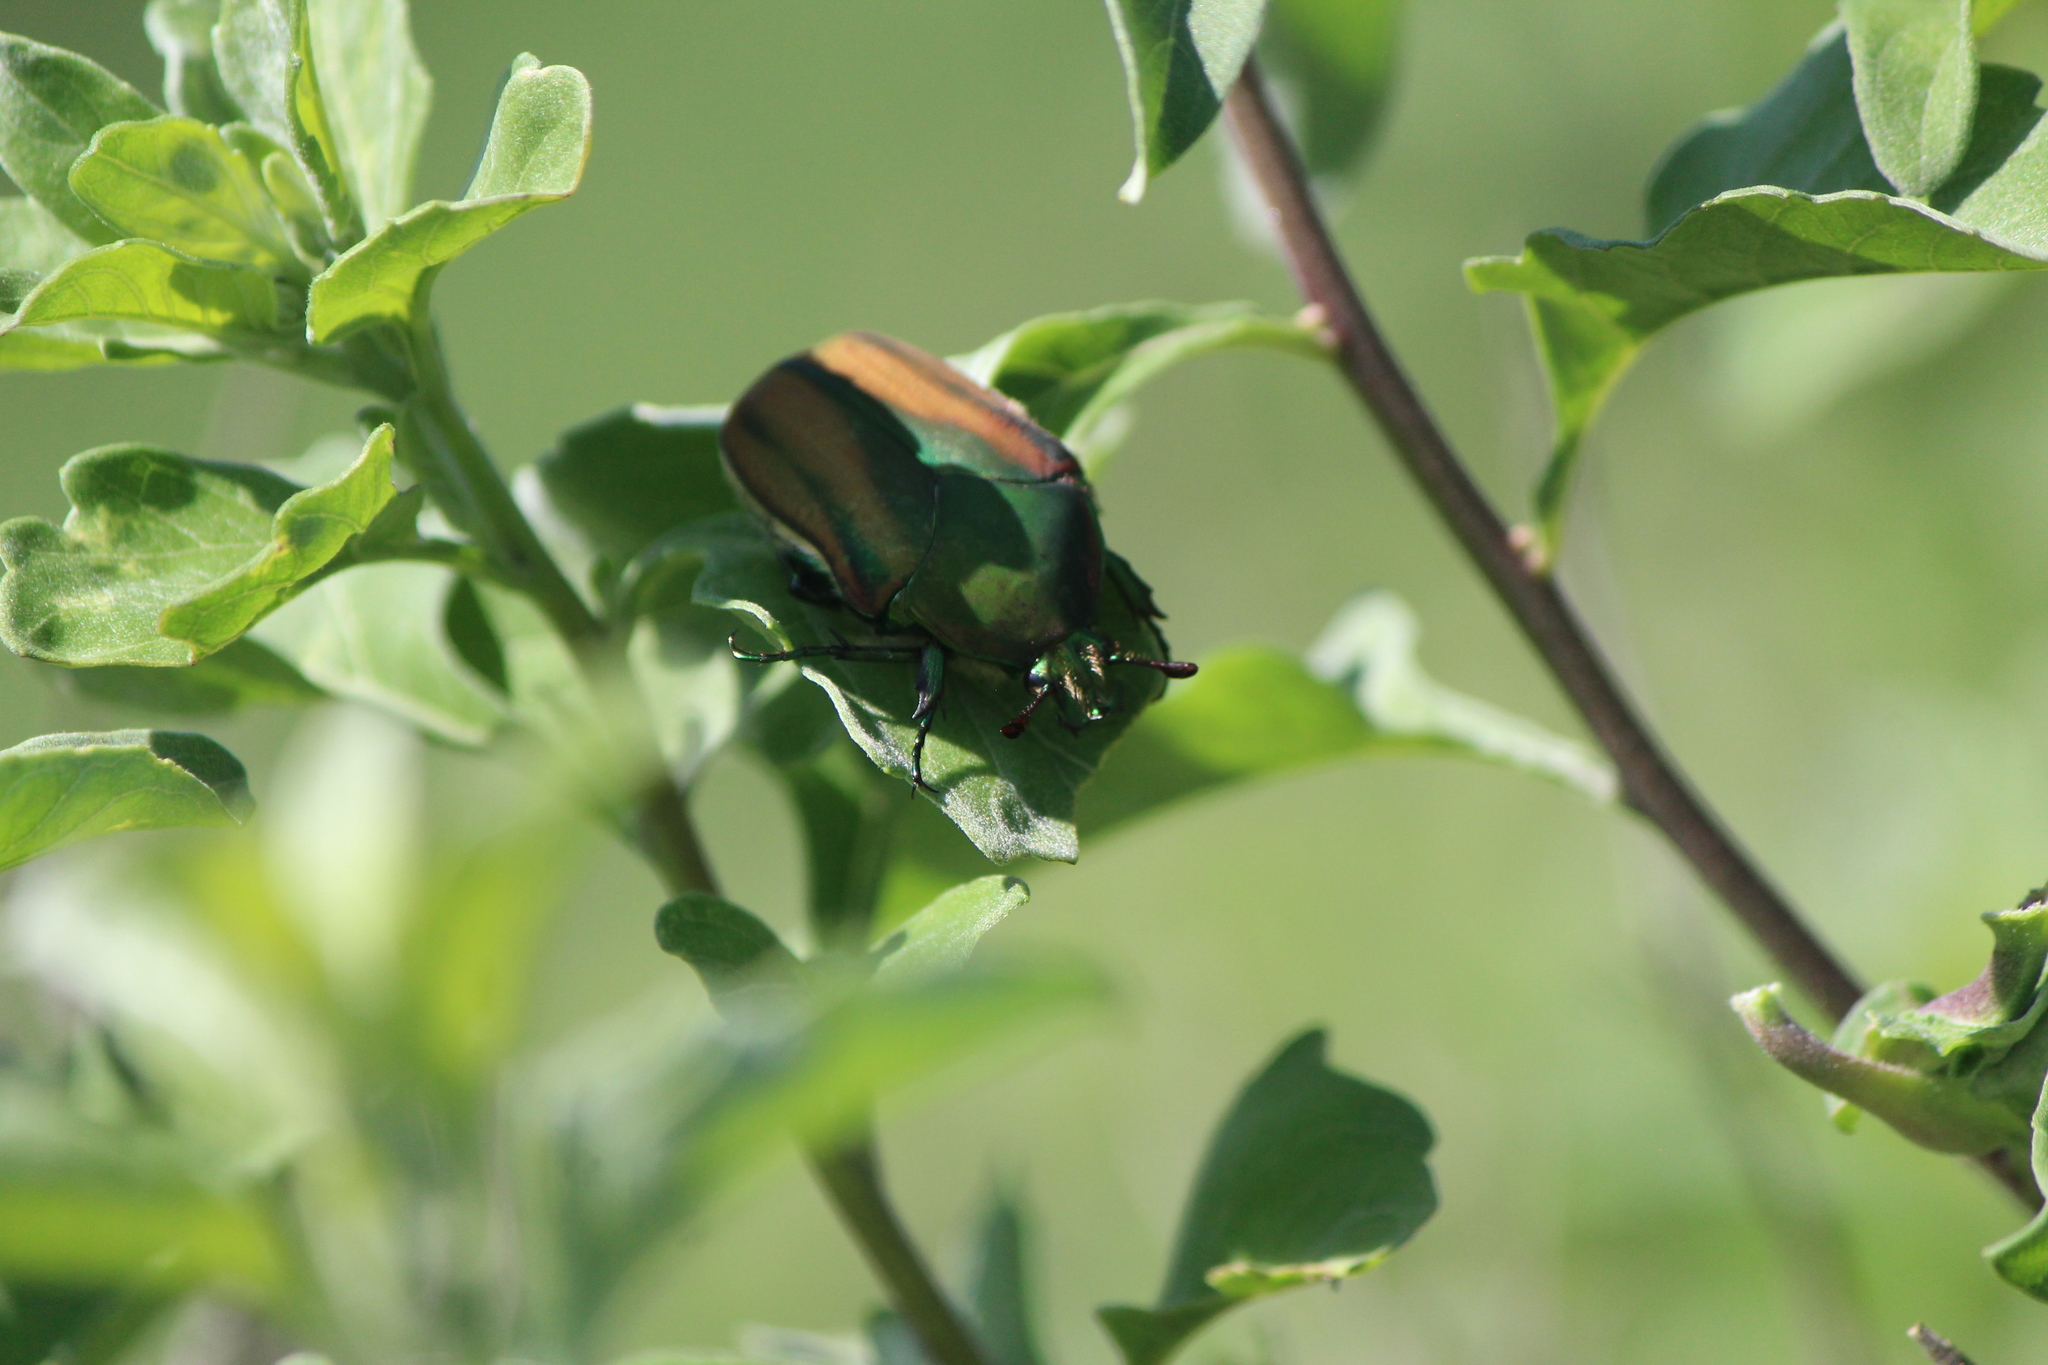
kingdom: Animalia
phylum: Arthropoda
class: Insecta
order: Coleoptera
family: Scarabaeidae
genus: Cotinis
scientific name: Cotinis mutabilis
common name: Figeater beetle
